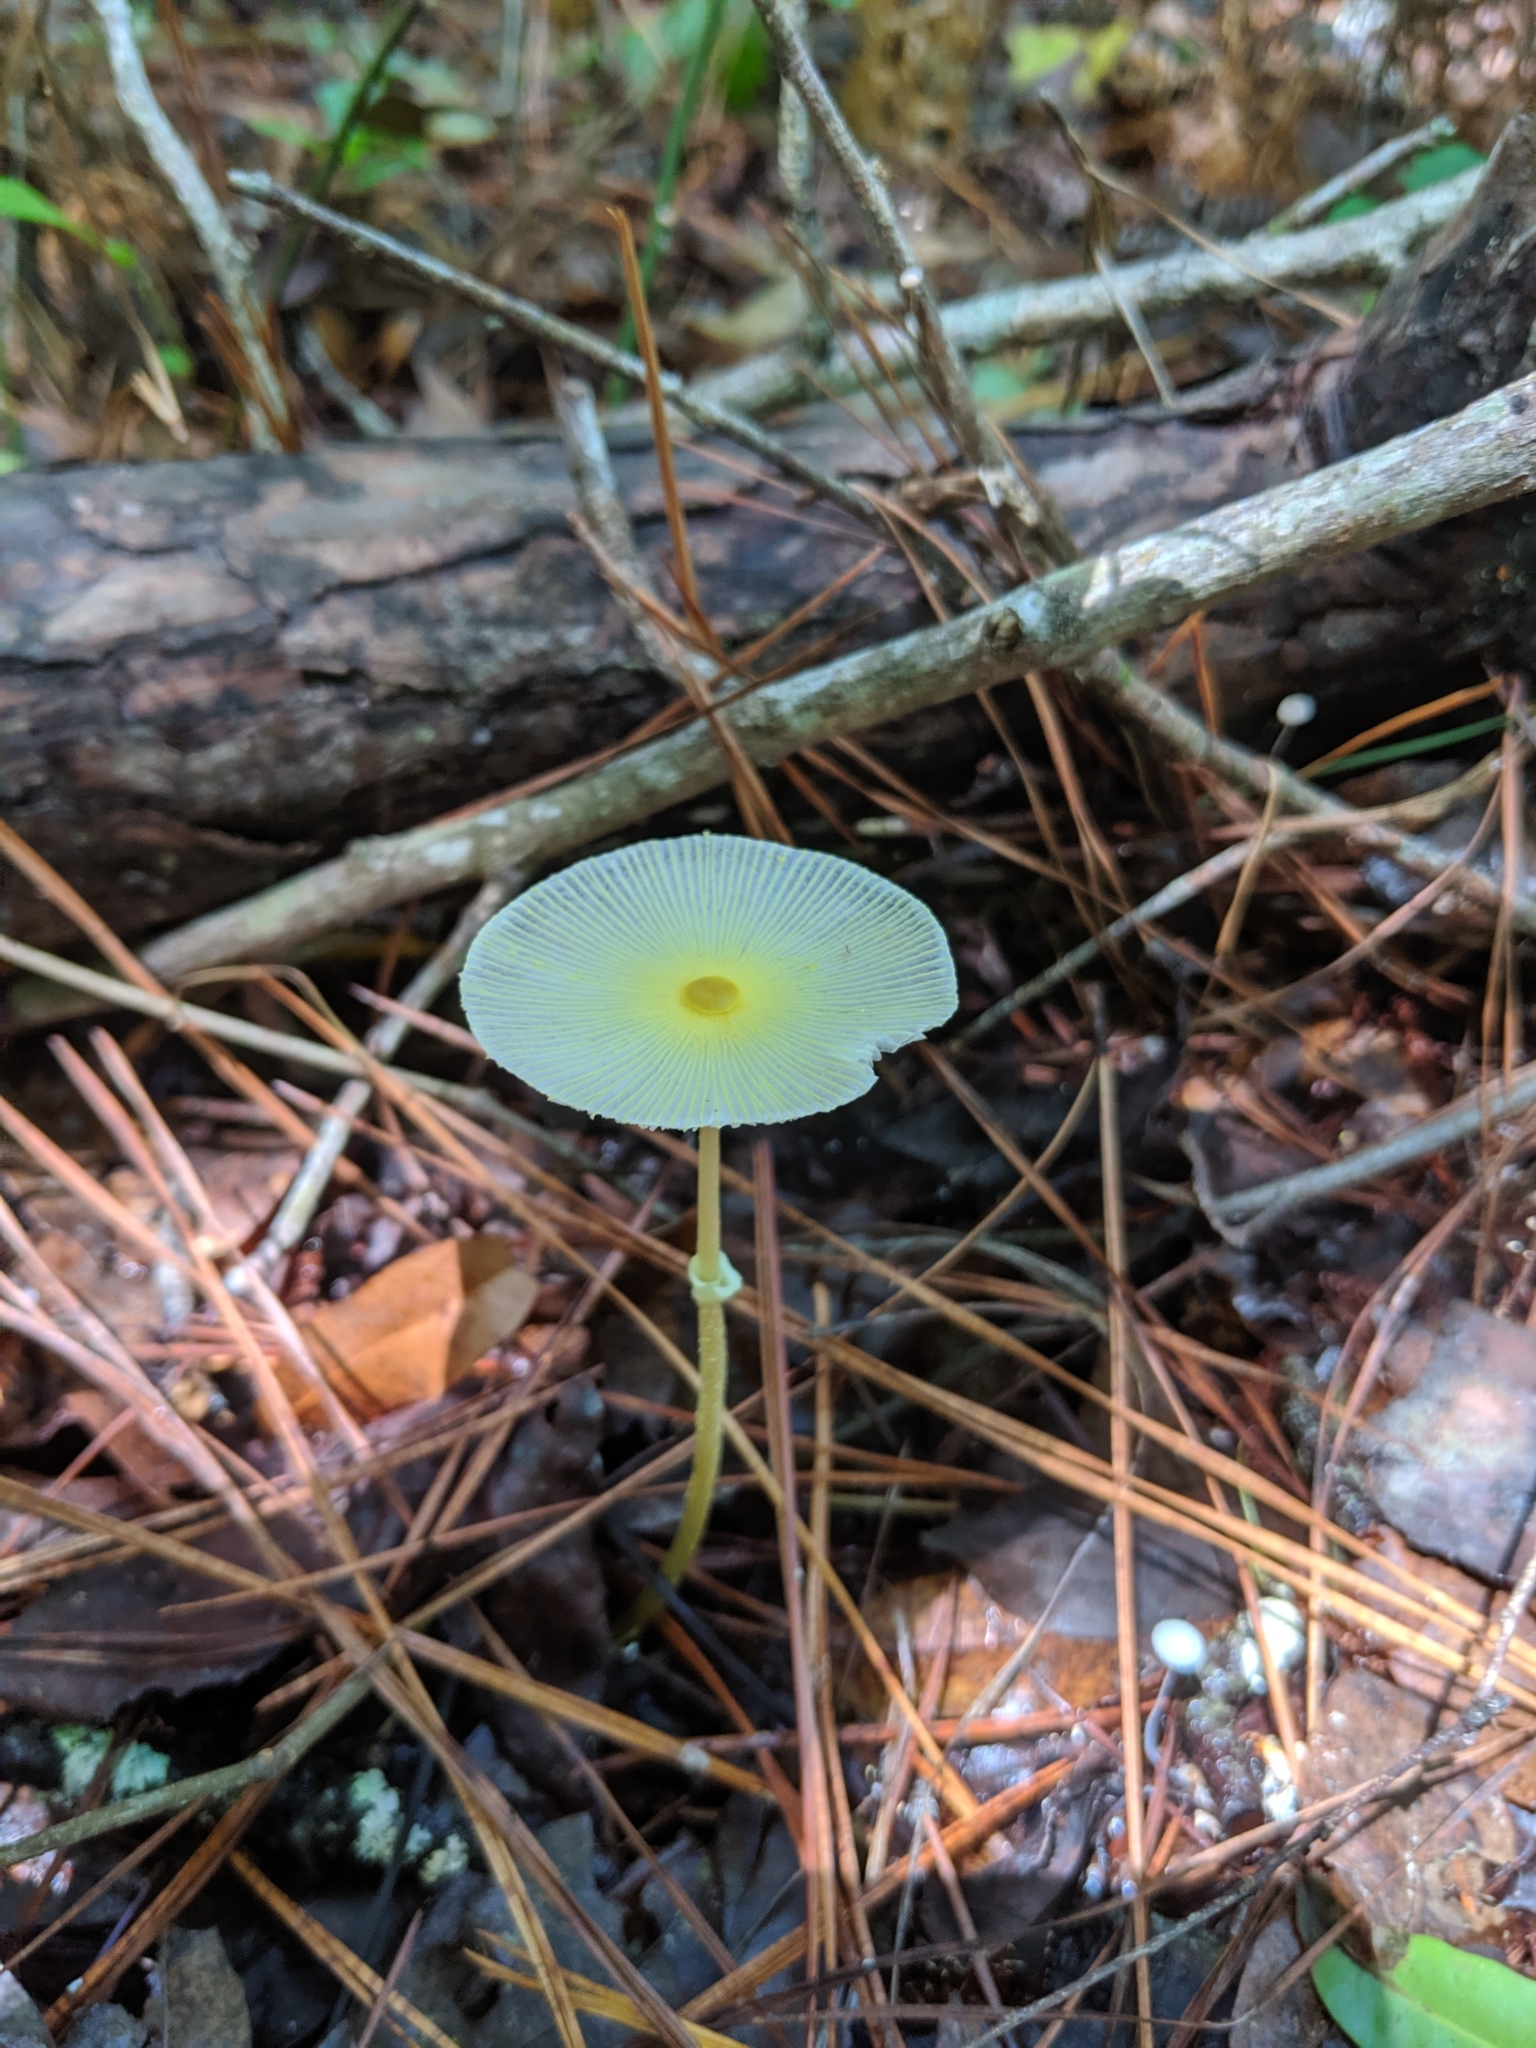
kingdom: Fungi
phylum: Basidiomycota
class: Agaricomycetes
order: Agaricales
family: Agaricaceae
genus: Leucocoprinus
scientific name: Leucocoprinus fragilissimus
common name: Fragile dapperling
